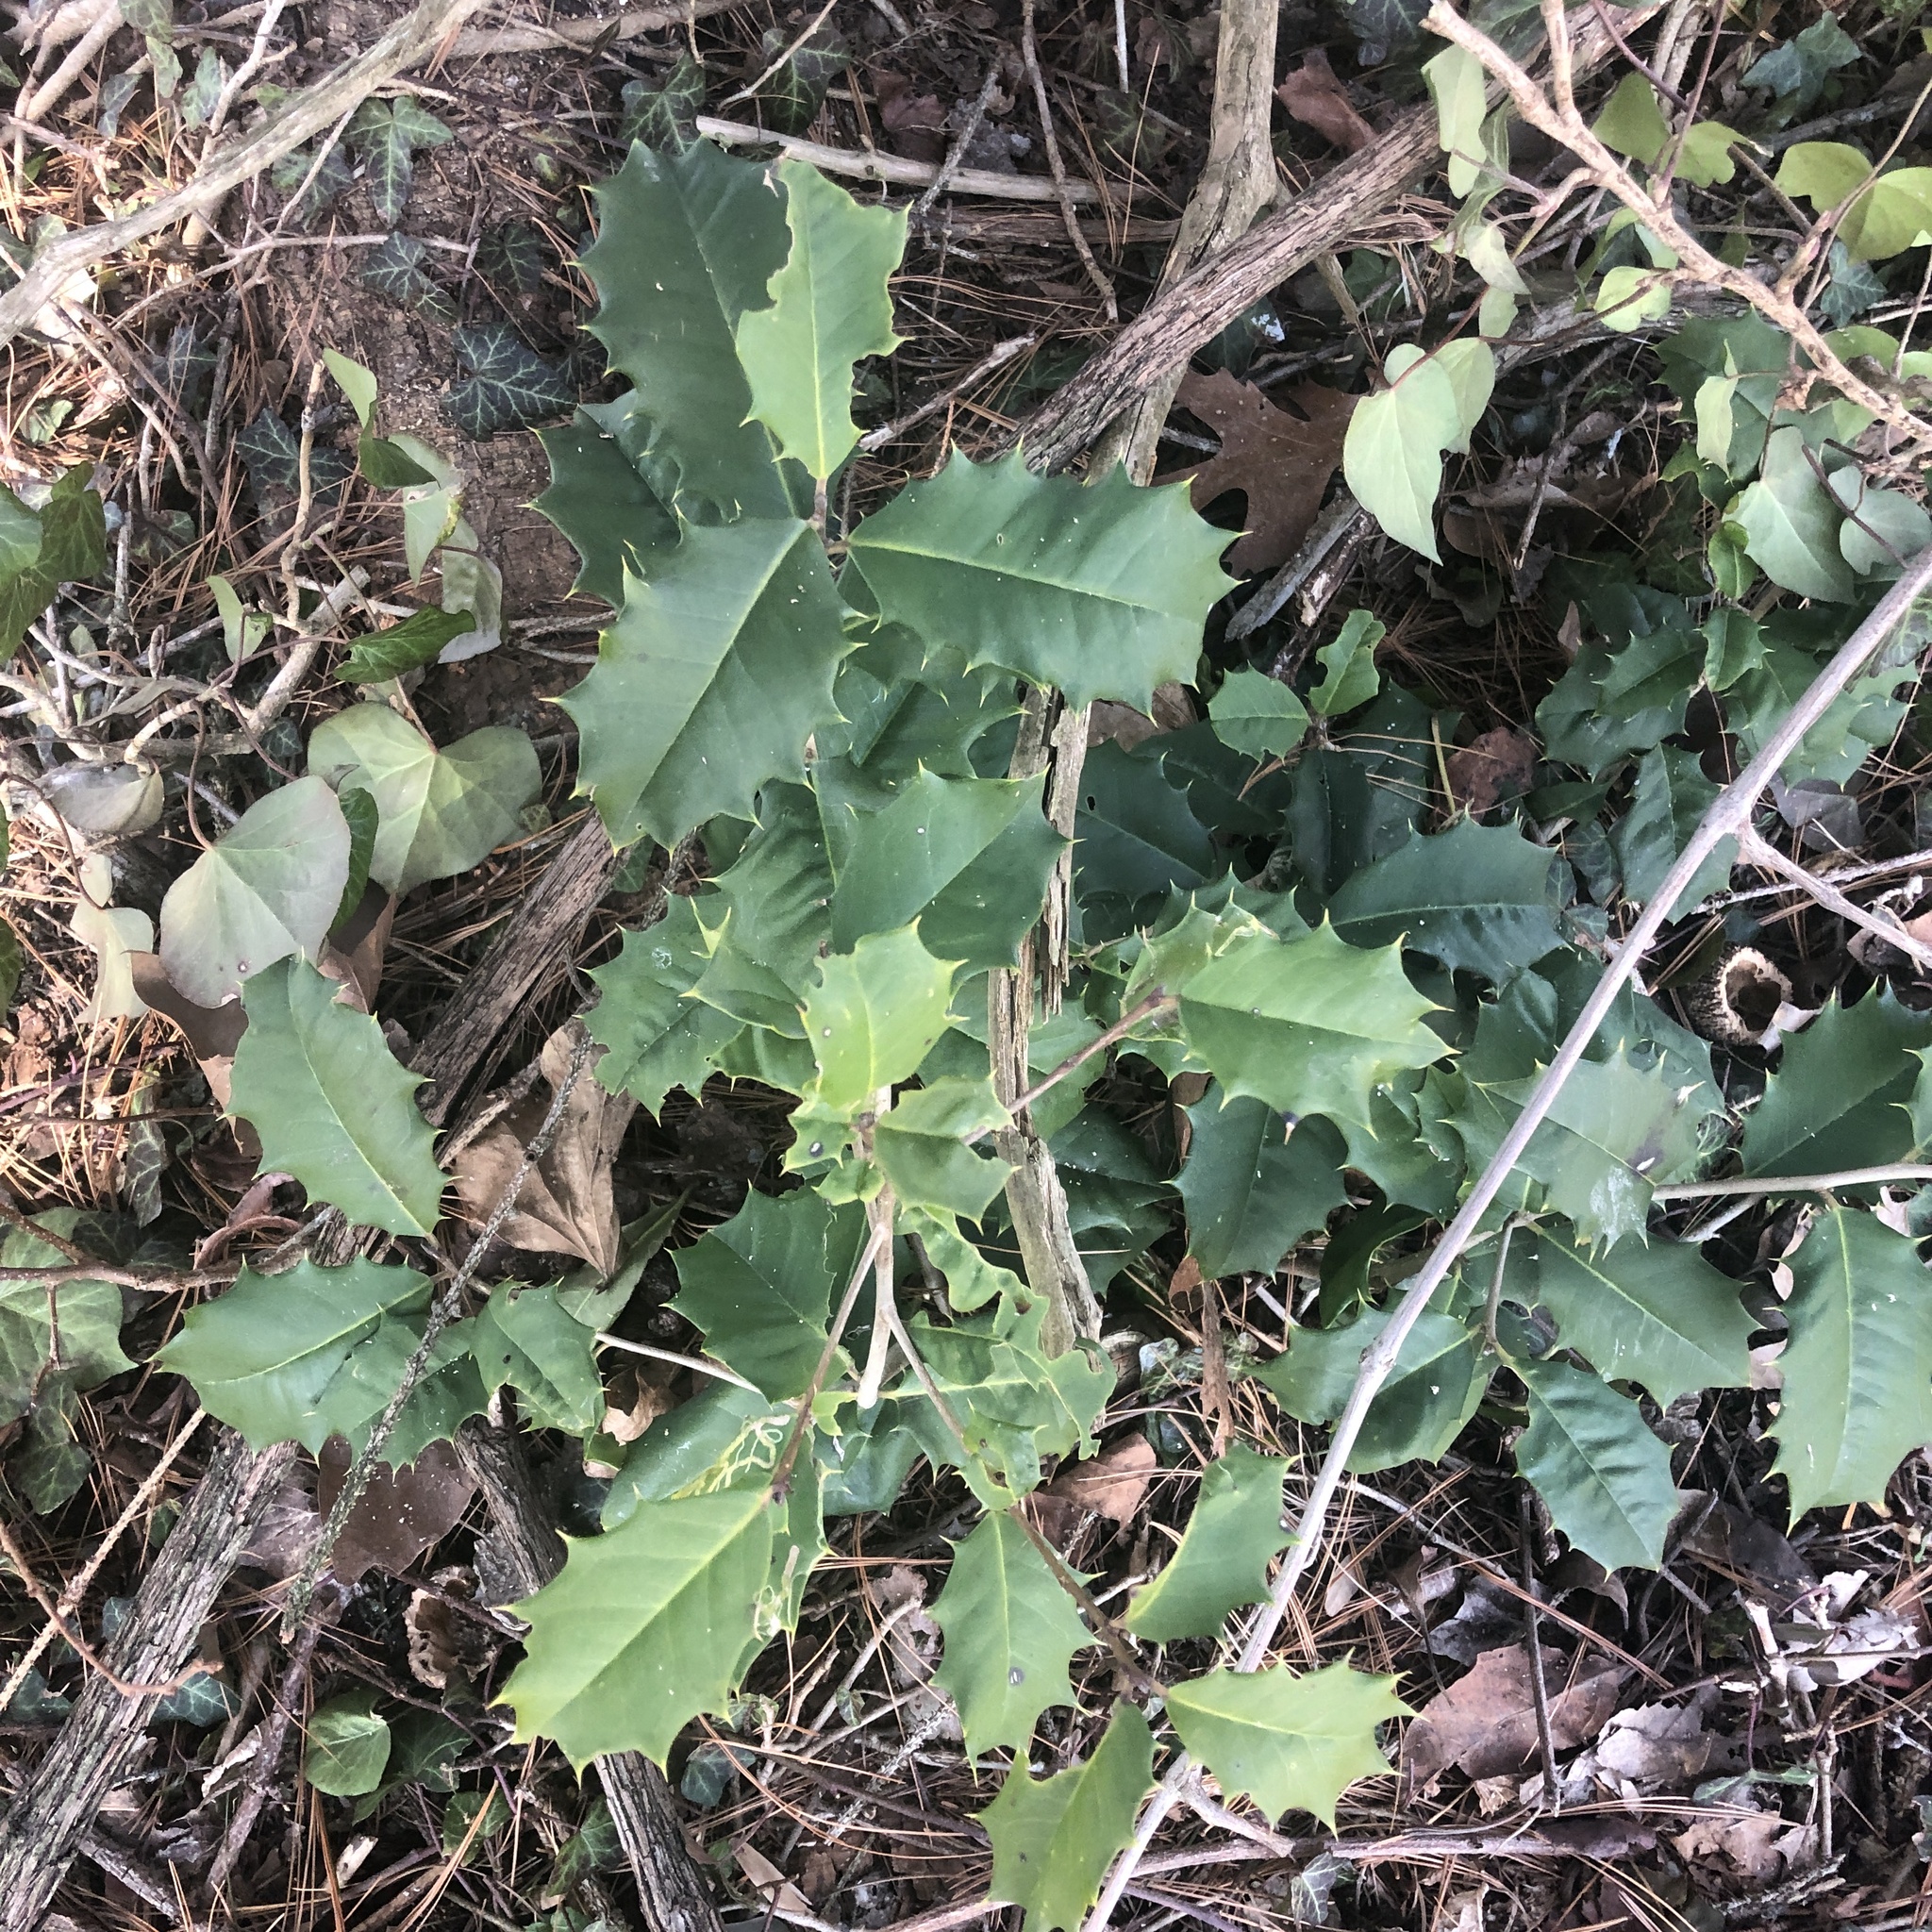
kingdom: Plantae
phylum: Tracheophyta
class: Magnoliopsida
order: Aquifoliales
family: Aquifoliaceae
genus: Ilex
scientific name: Ilex opaca
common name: American holly
